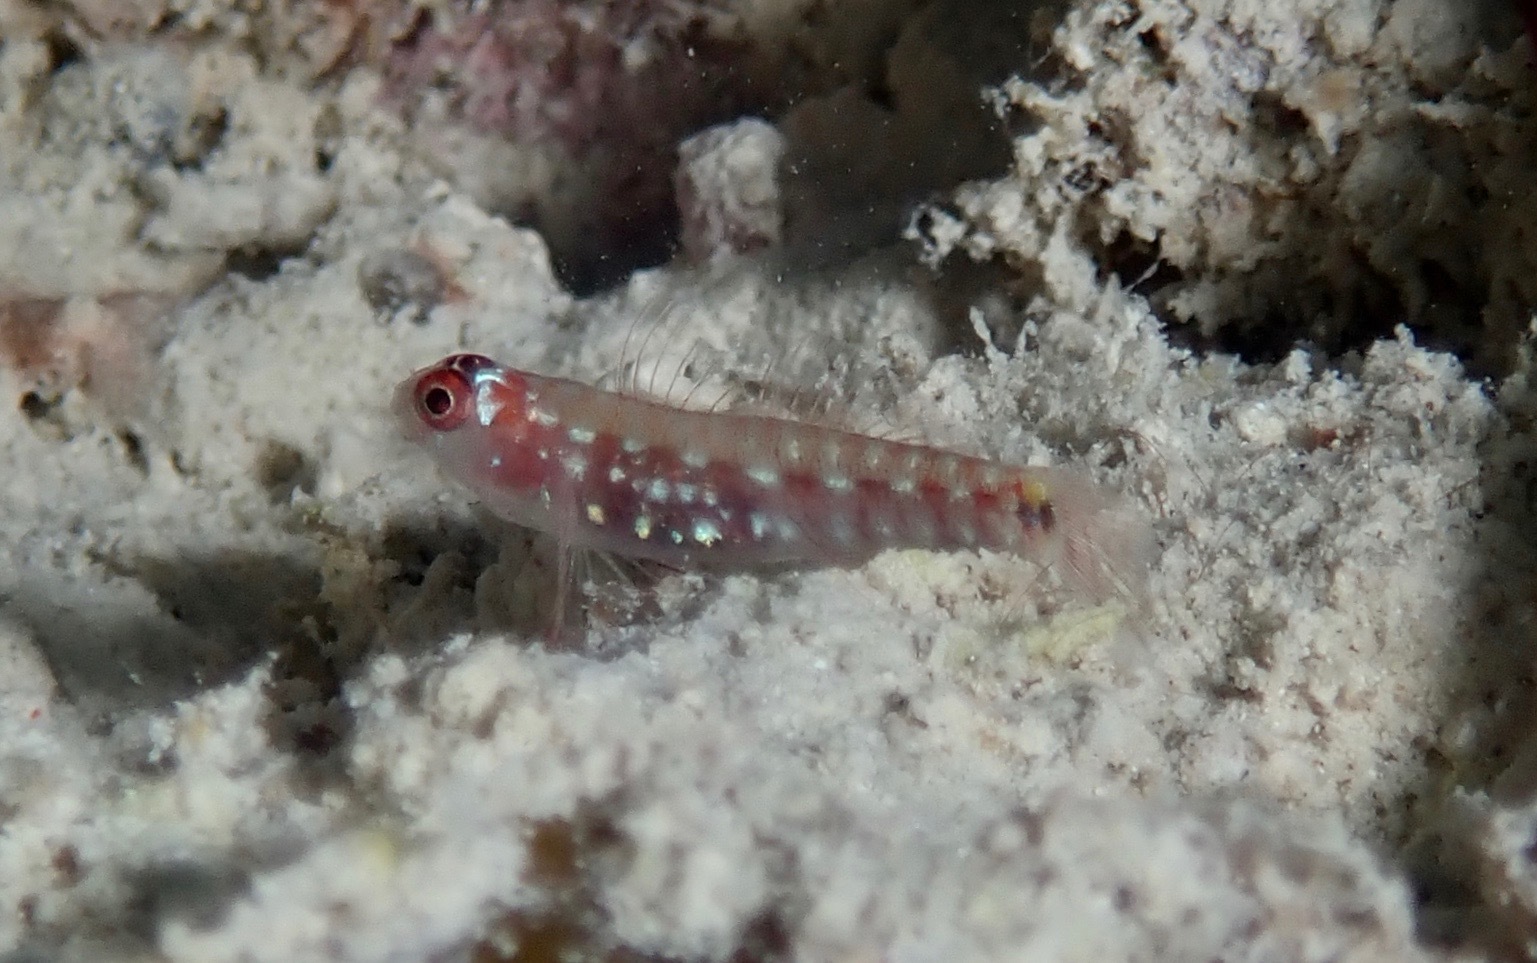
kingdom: Animalia
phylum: Chordata
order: Perciformes
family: Gobiidae
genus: Eviota
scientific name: Eviota cometa
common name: Comet pygmy goby
